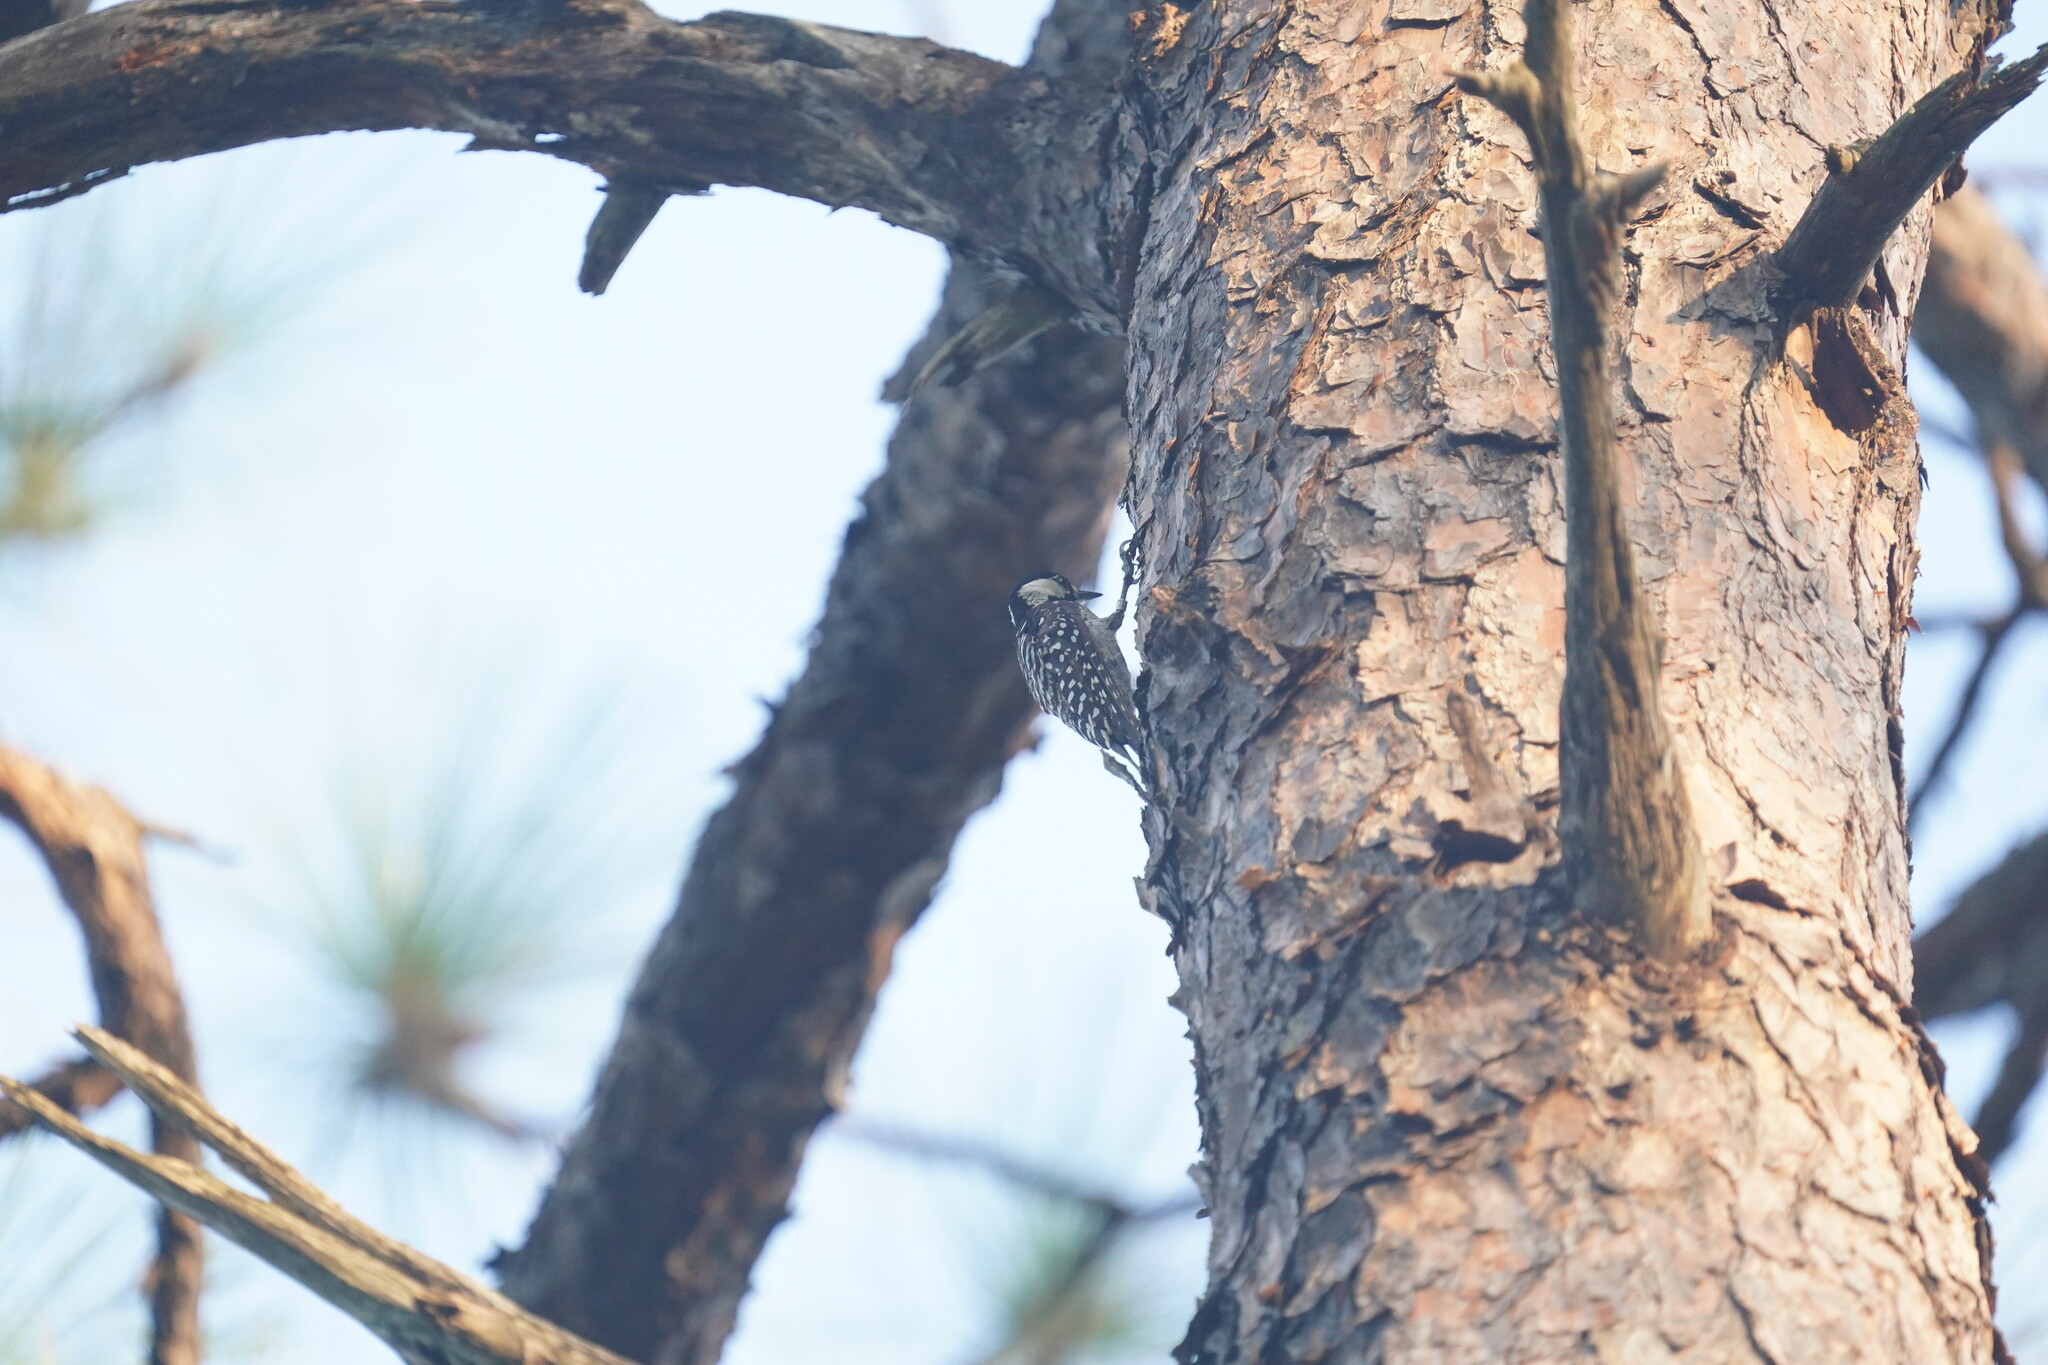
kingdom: Animalia
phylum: Chordata
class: Aves
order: Piciformes
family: Picidae
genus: Leuconotopicus
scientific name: Leuconotopicus borealis
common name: Red-cockaded woodpecker
